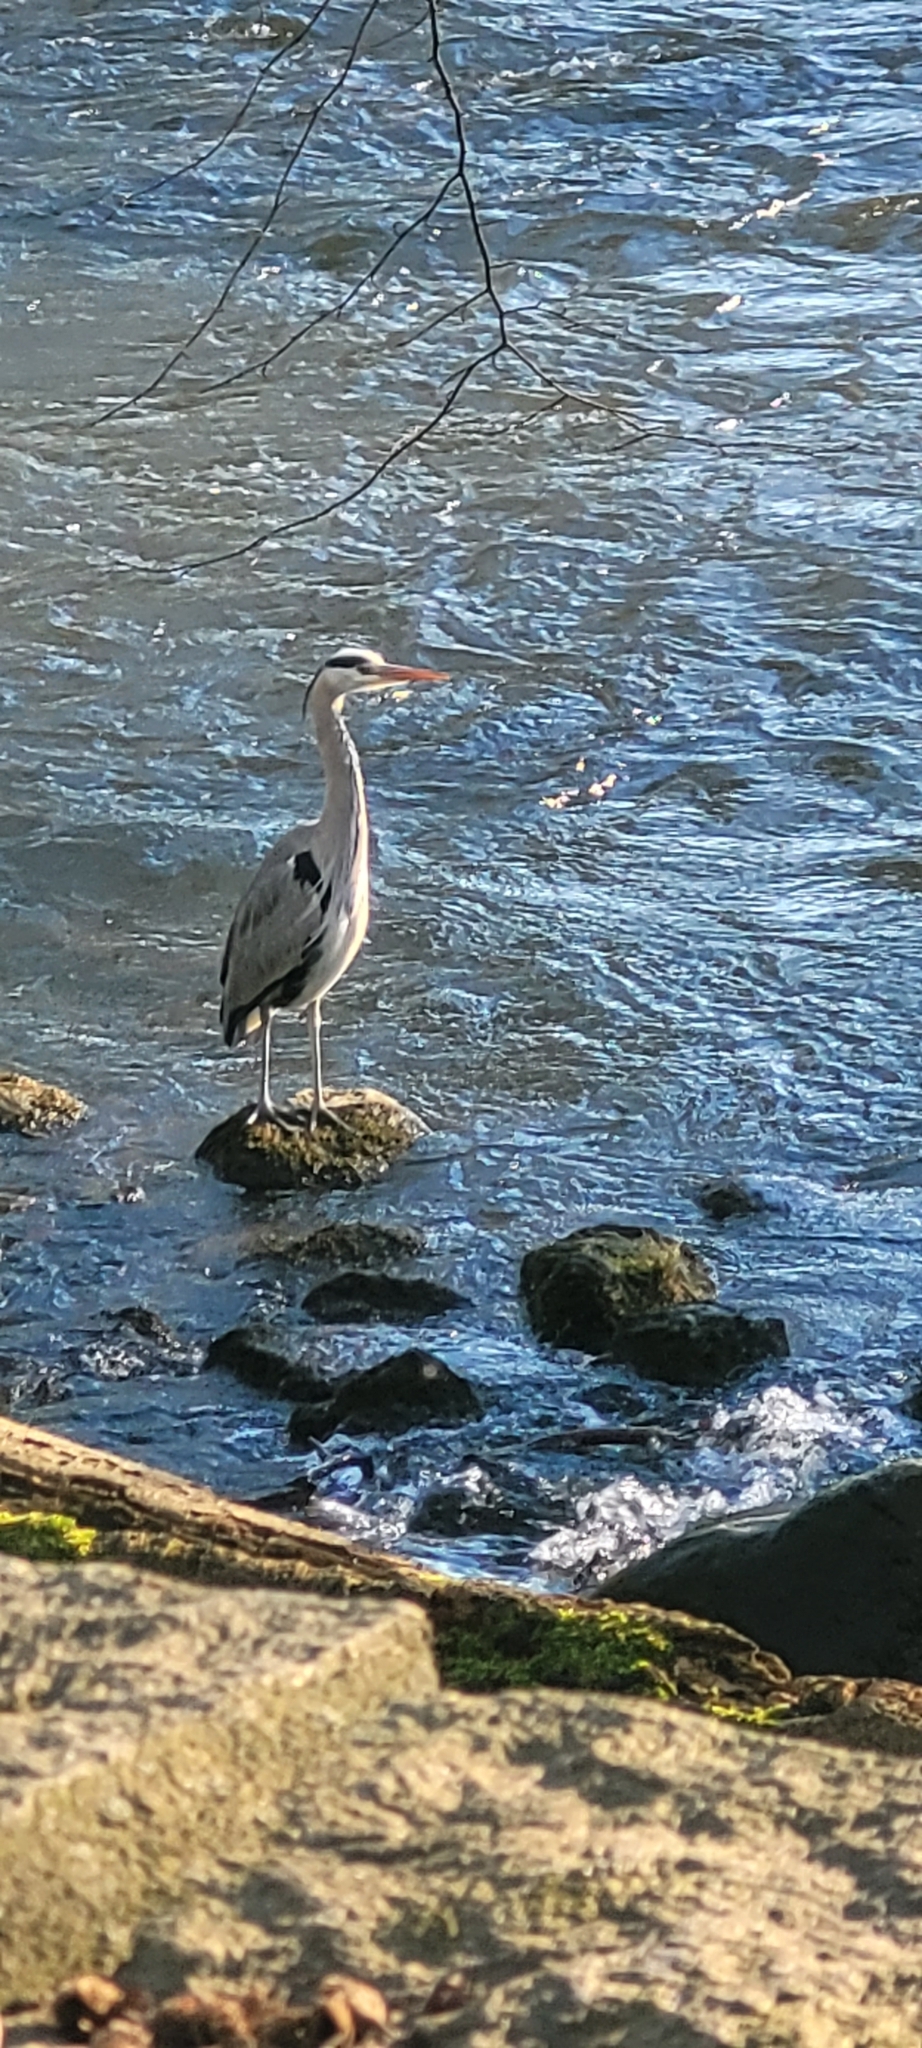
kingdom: Animalia
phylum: Chordata
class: Aves
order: Pelecaniformes
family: Ardeidae
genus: Ardea
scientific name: Ardea cinerea
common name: Grey heron
